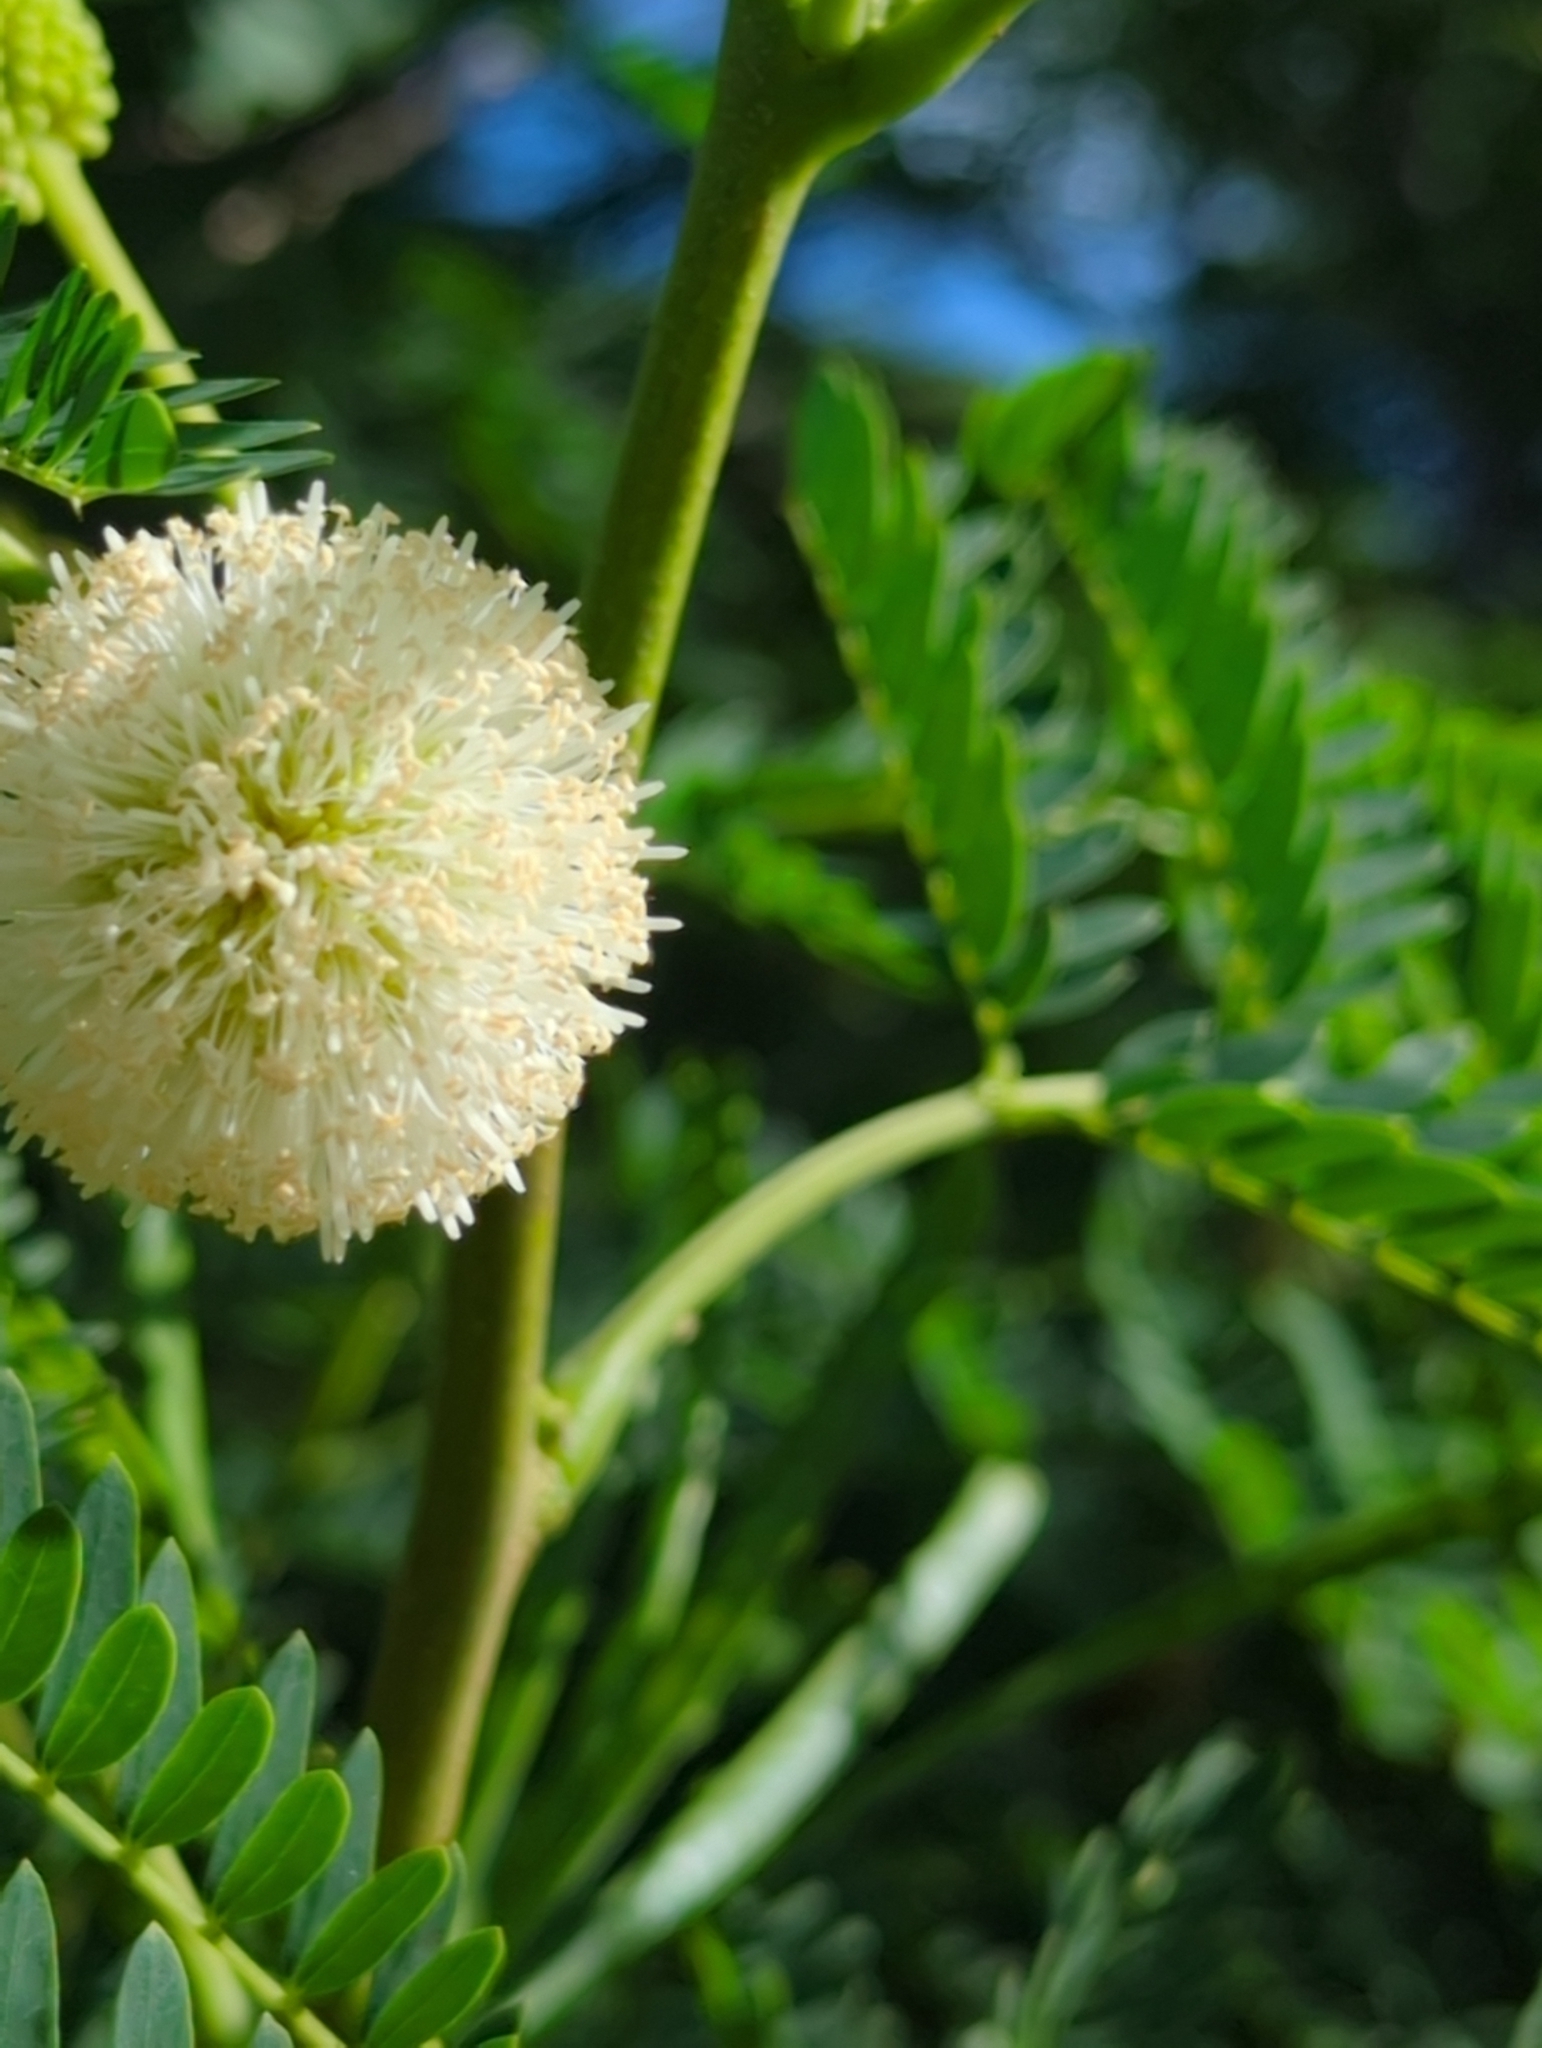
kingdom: Plantae
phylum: Tracheophyta
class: Magnoliopsida
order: Fabales
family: Fabaceae
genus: Leucaena
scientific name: Leucaena leucocephala
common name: White leadtree
